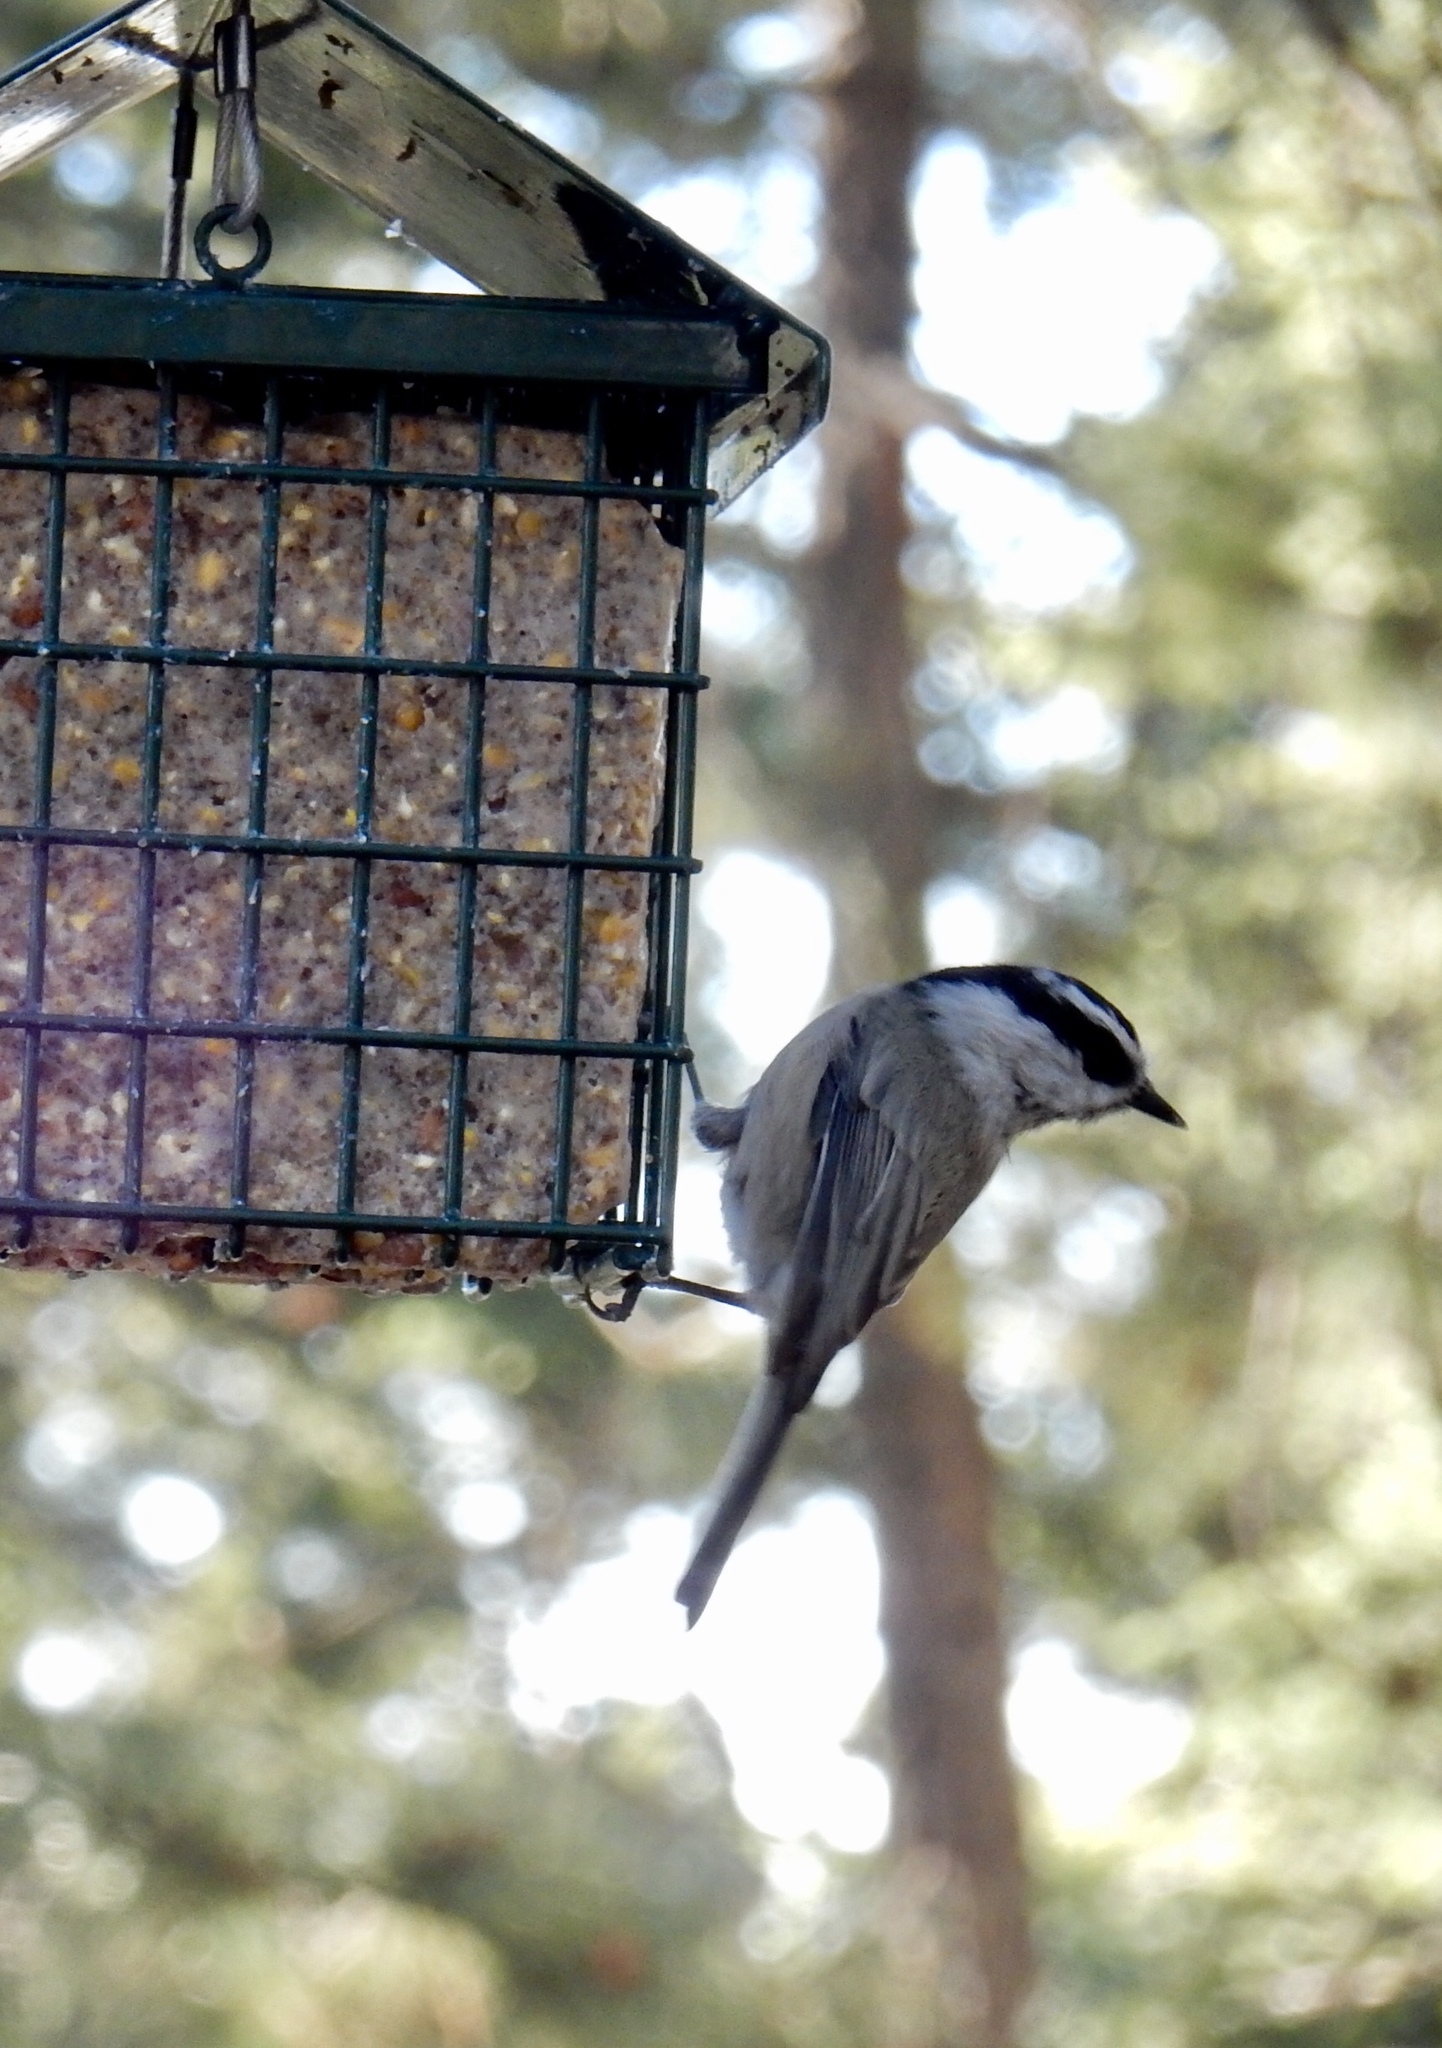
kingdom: Animalia
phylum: Chordata
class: Aves
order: Passeriformes
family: Paridae
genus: Poecile
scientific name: Poecile gambeli
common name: Mountain chickadee
